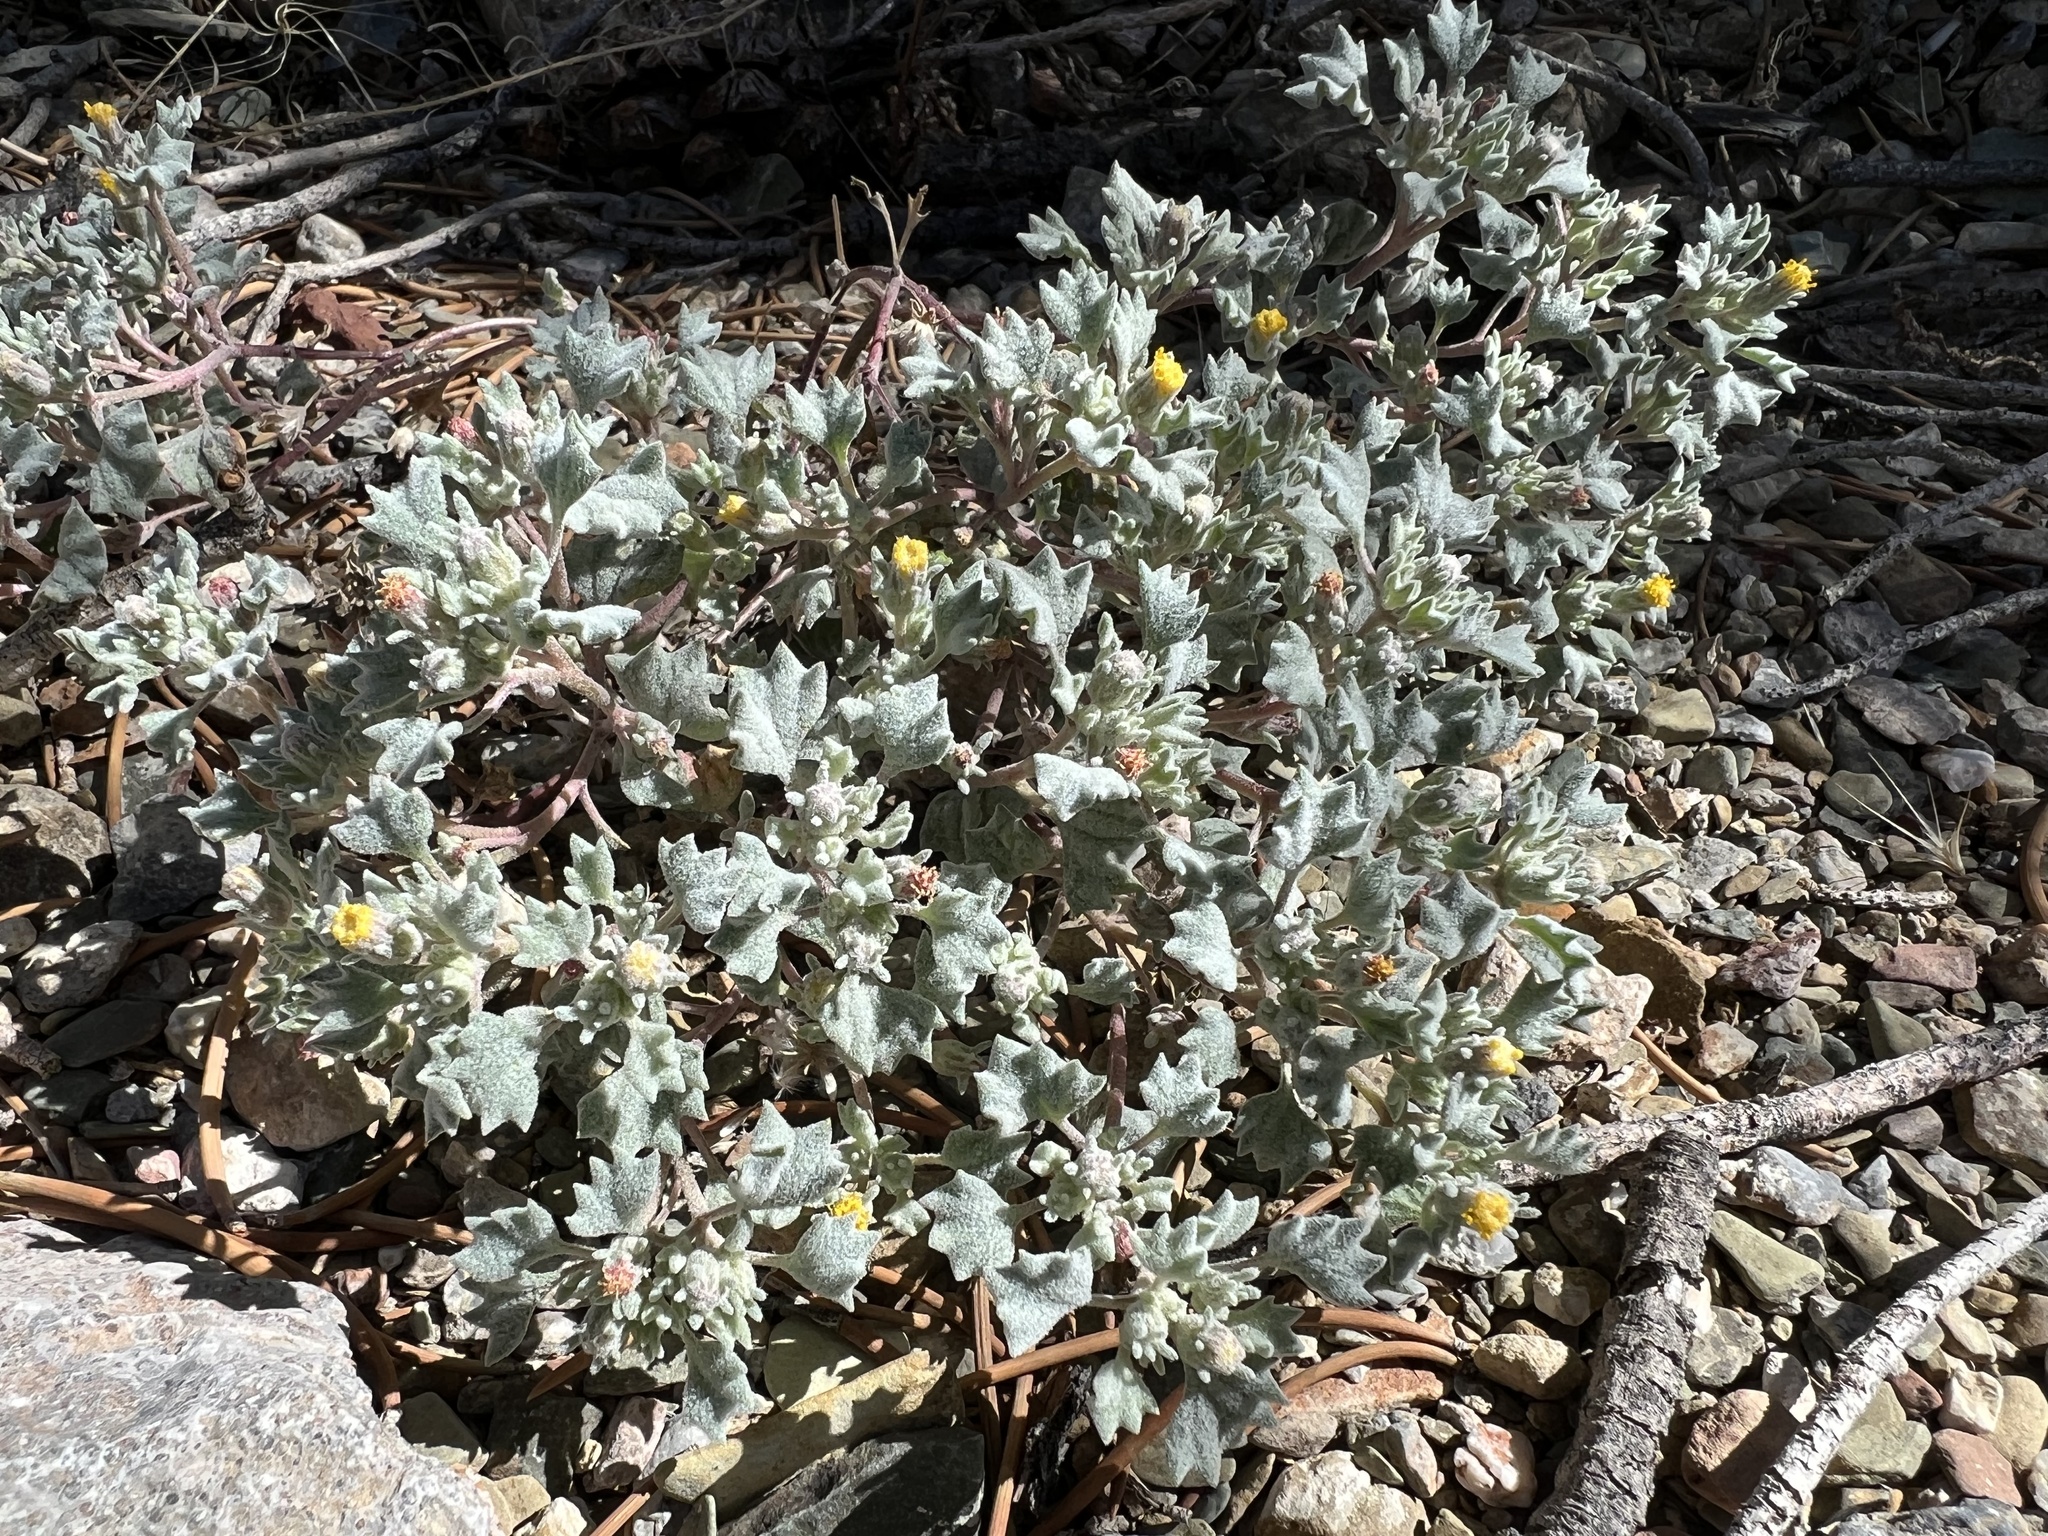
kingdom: Plantae
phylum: Tracheophyta
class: Magnoliopsida
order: Asterales
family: Asteraceae
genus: Psathyrotes
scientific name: Psathyrotes annua
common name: Mealy rosettes
